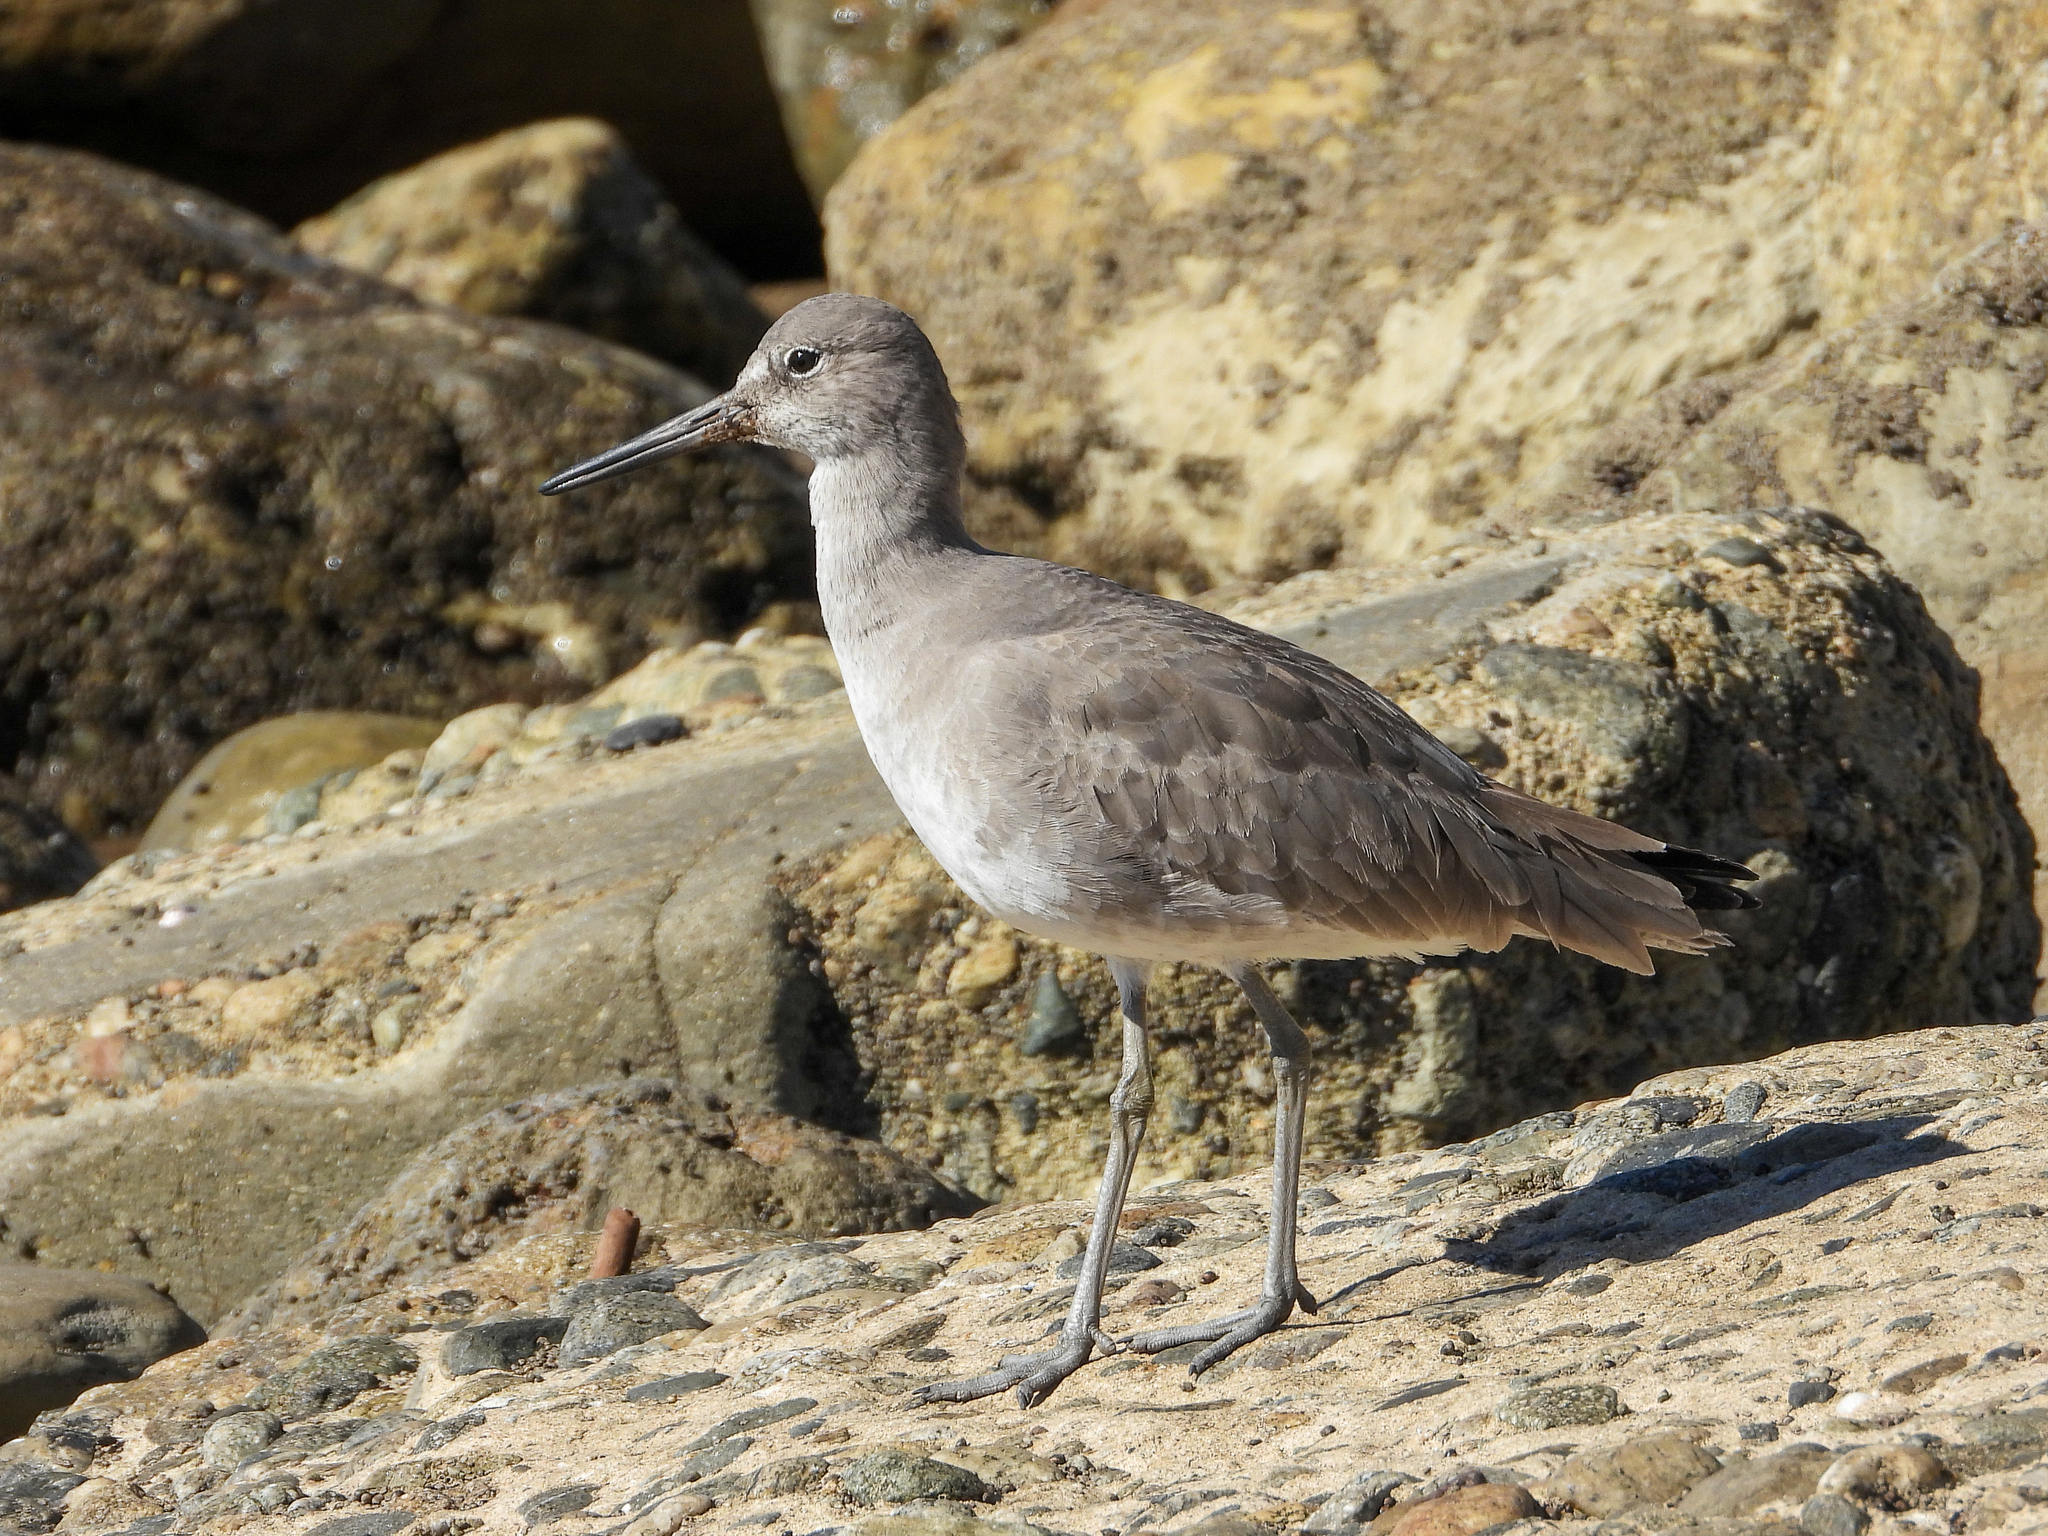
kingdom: Animalia
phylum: Chordata
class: Aves
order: Charadriiformes
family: Scolopacidae
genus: Tringa
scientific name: Tringa semipalmata
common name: Willet
